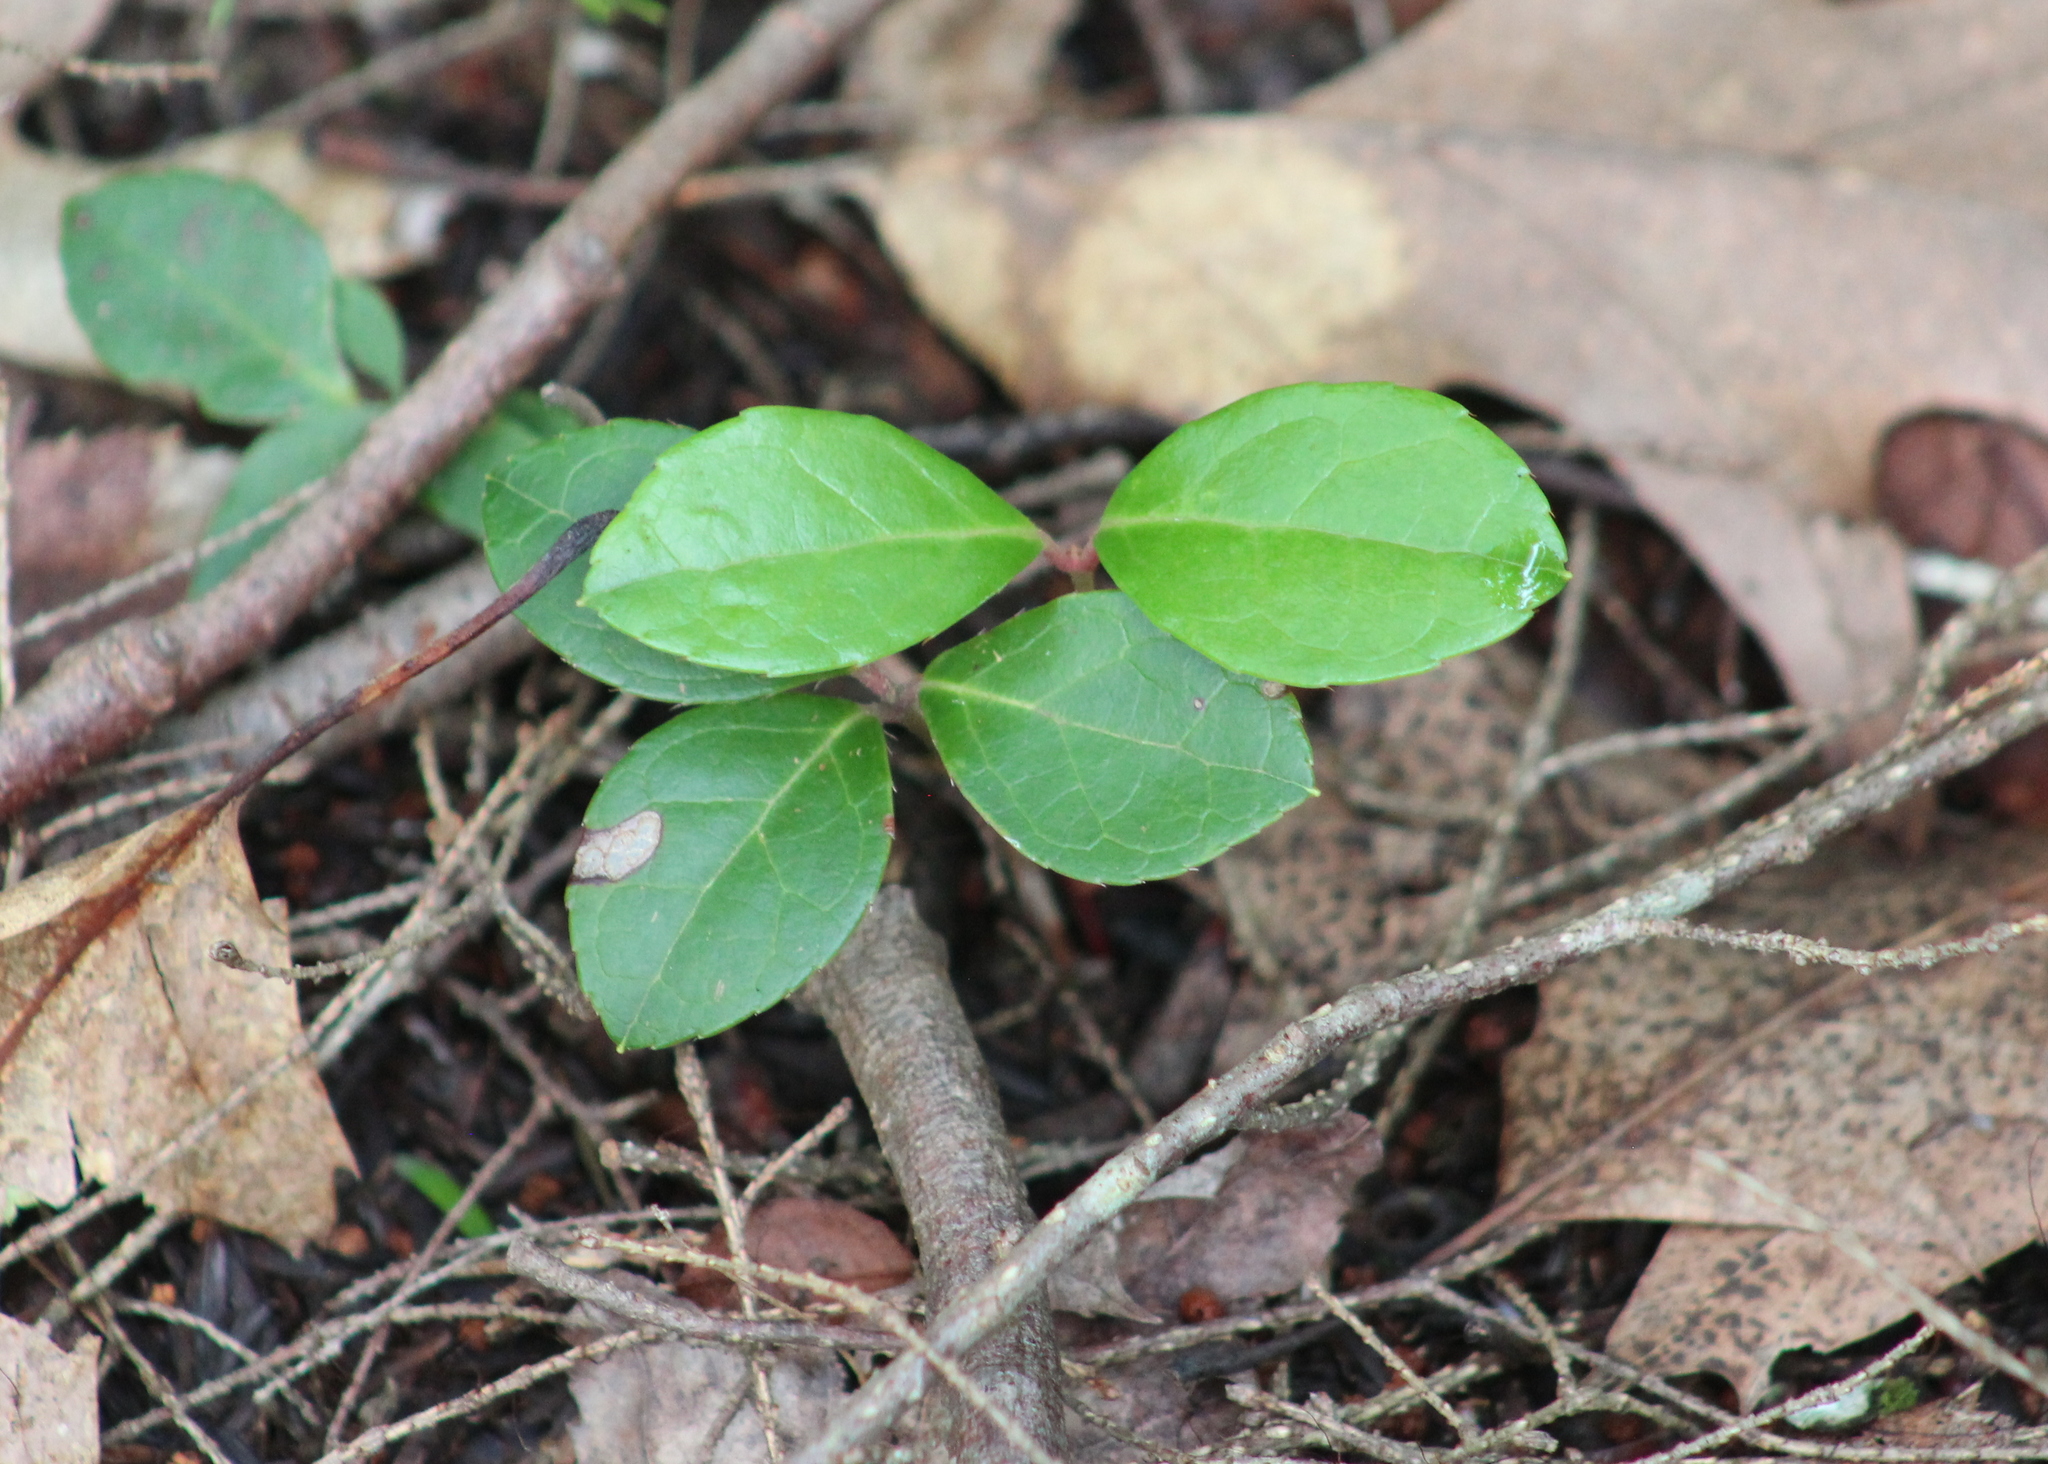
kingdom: Plantae
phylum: Tracheophyta
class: Magnoliopsida
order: Ericales
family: Ericaceae
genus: Gaultheria
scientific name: Gaultheria procumbens
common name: Checkerberry
